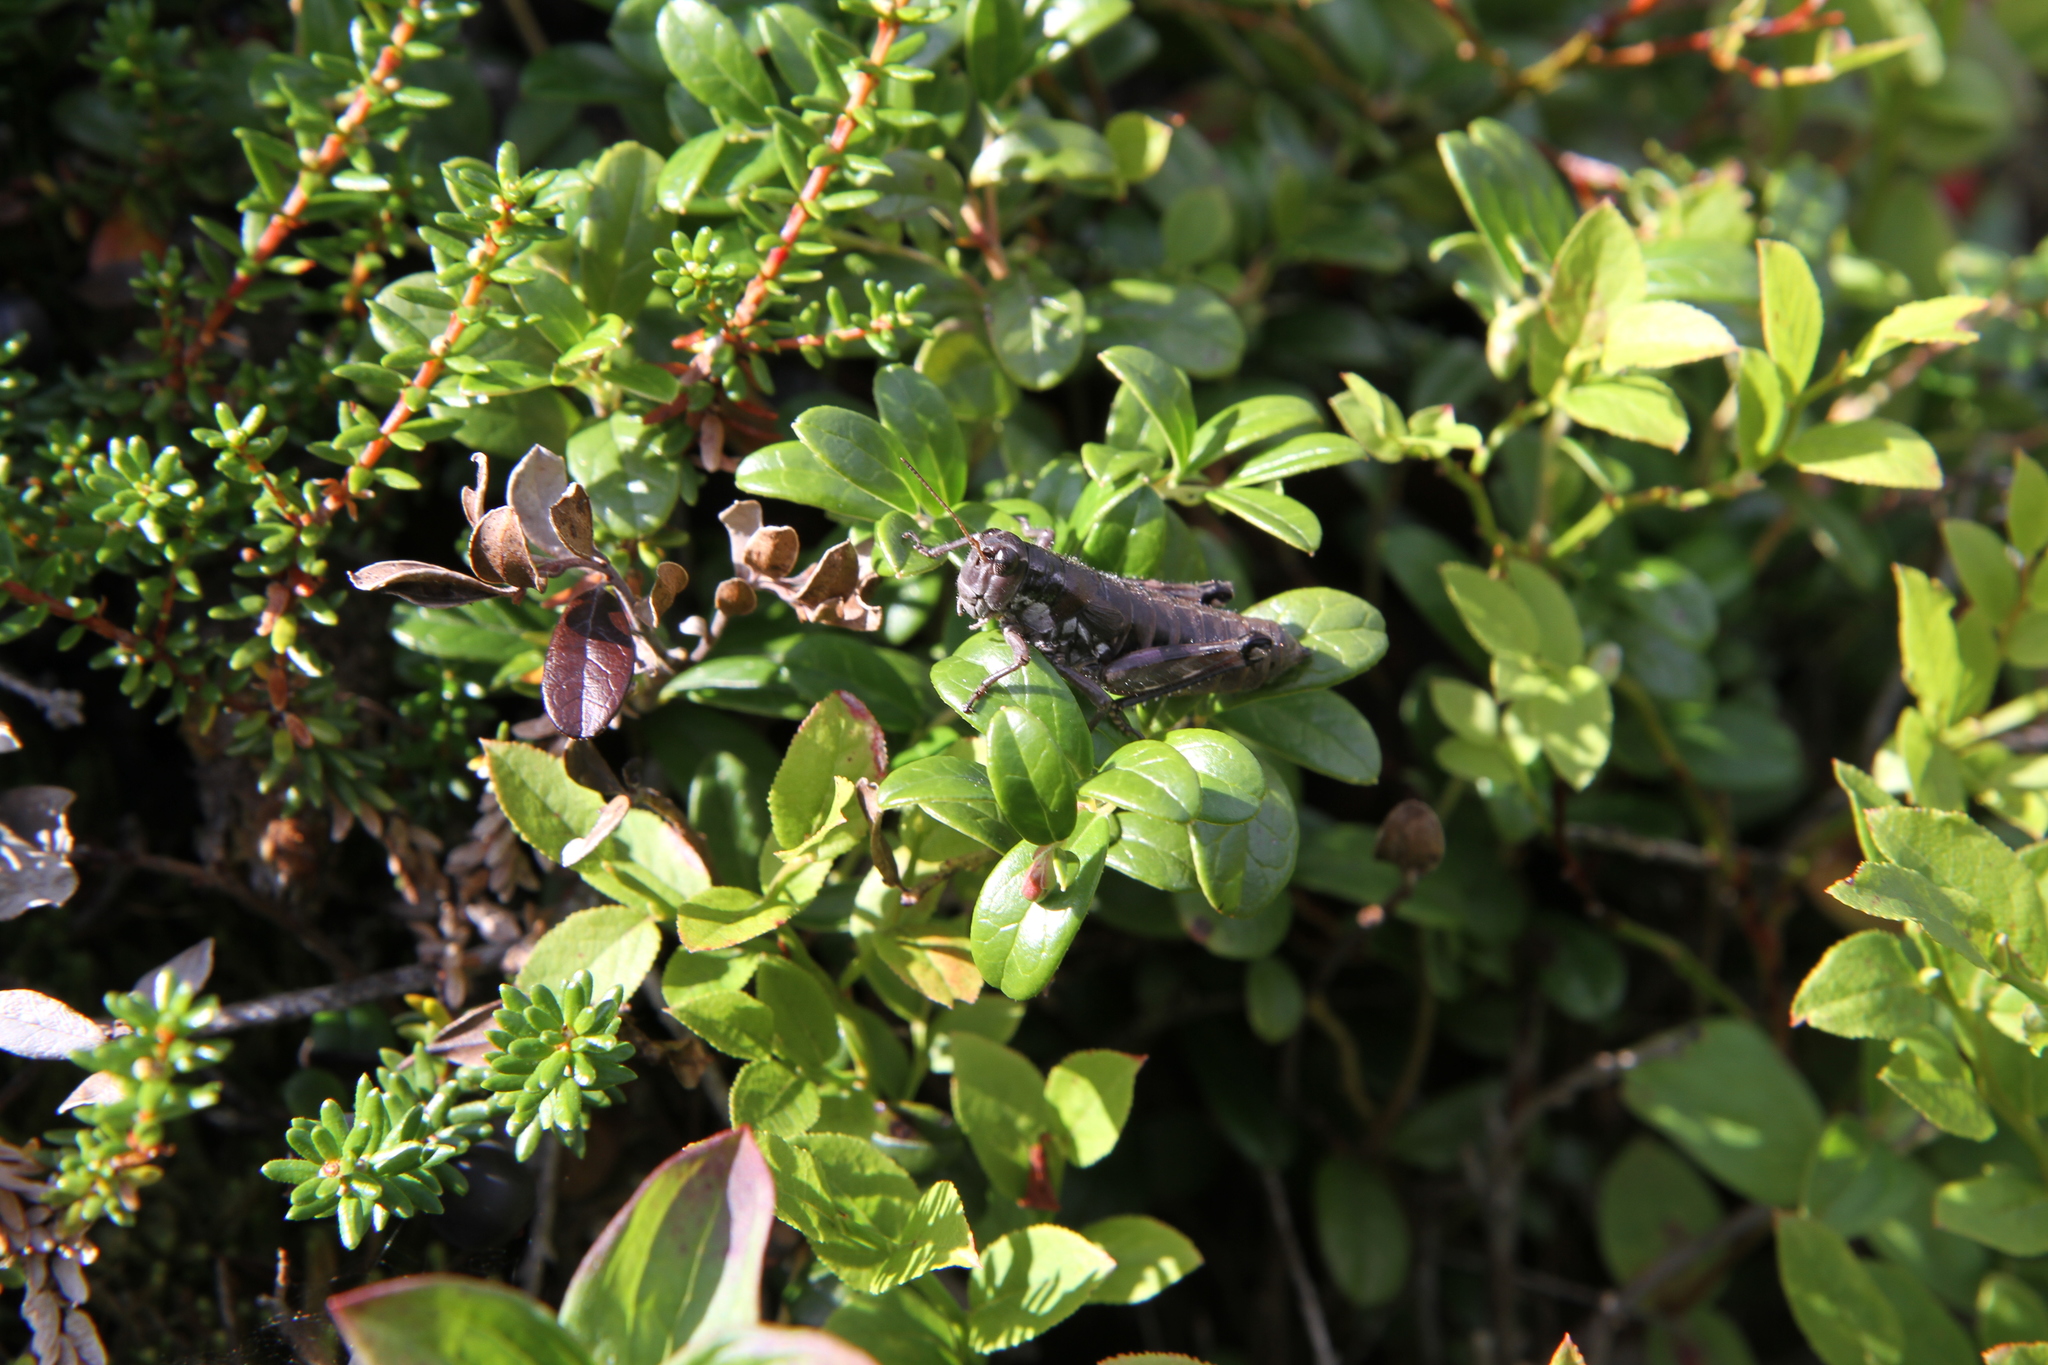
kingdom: Animalia
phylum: Arthropoda
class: Insecta
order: Orthoptera
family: Acrididae
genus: Podisma
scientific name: Podisma pedestris
